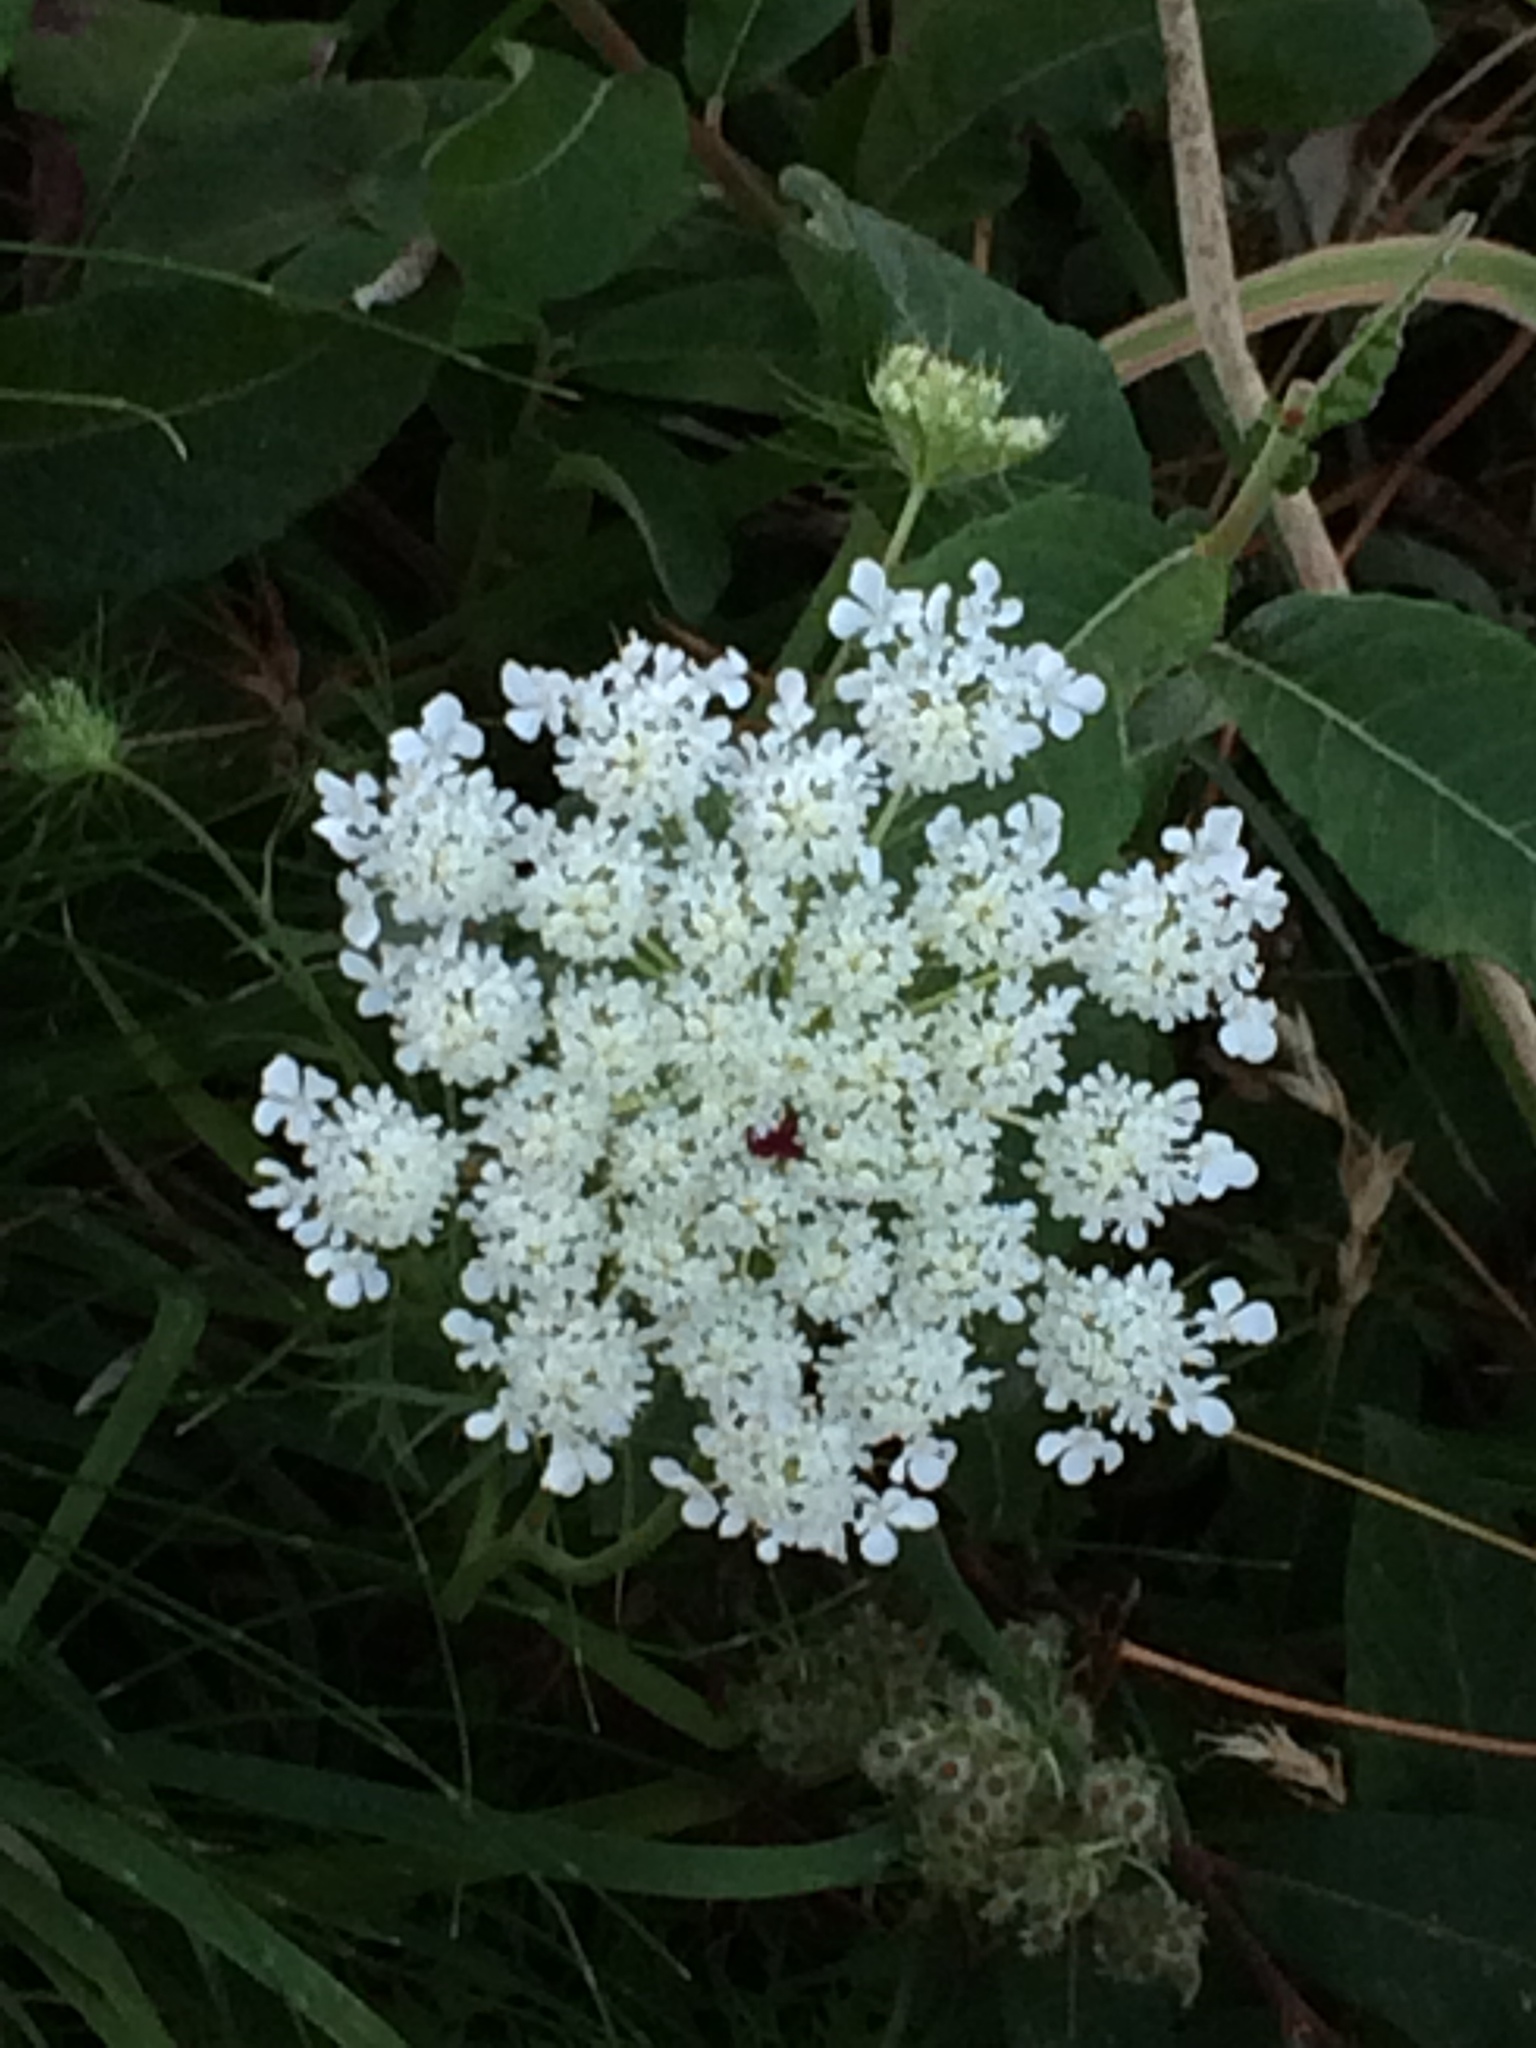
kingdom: Plantae
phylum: Tracheophyta
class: Magnoliopsida
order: Apiales
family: Apiaceae
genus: Daucus
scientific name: Daucus carota
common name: Wild carrot
